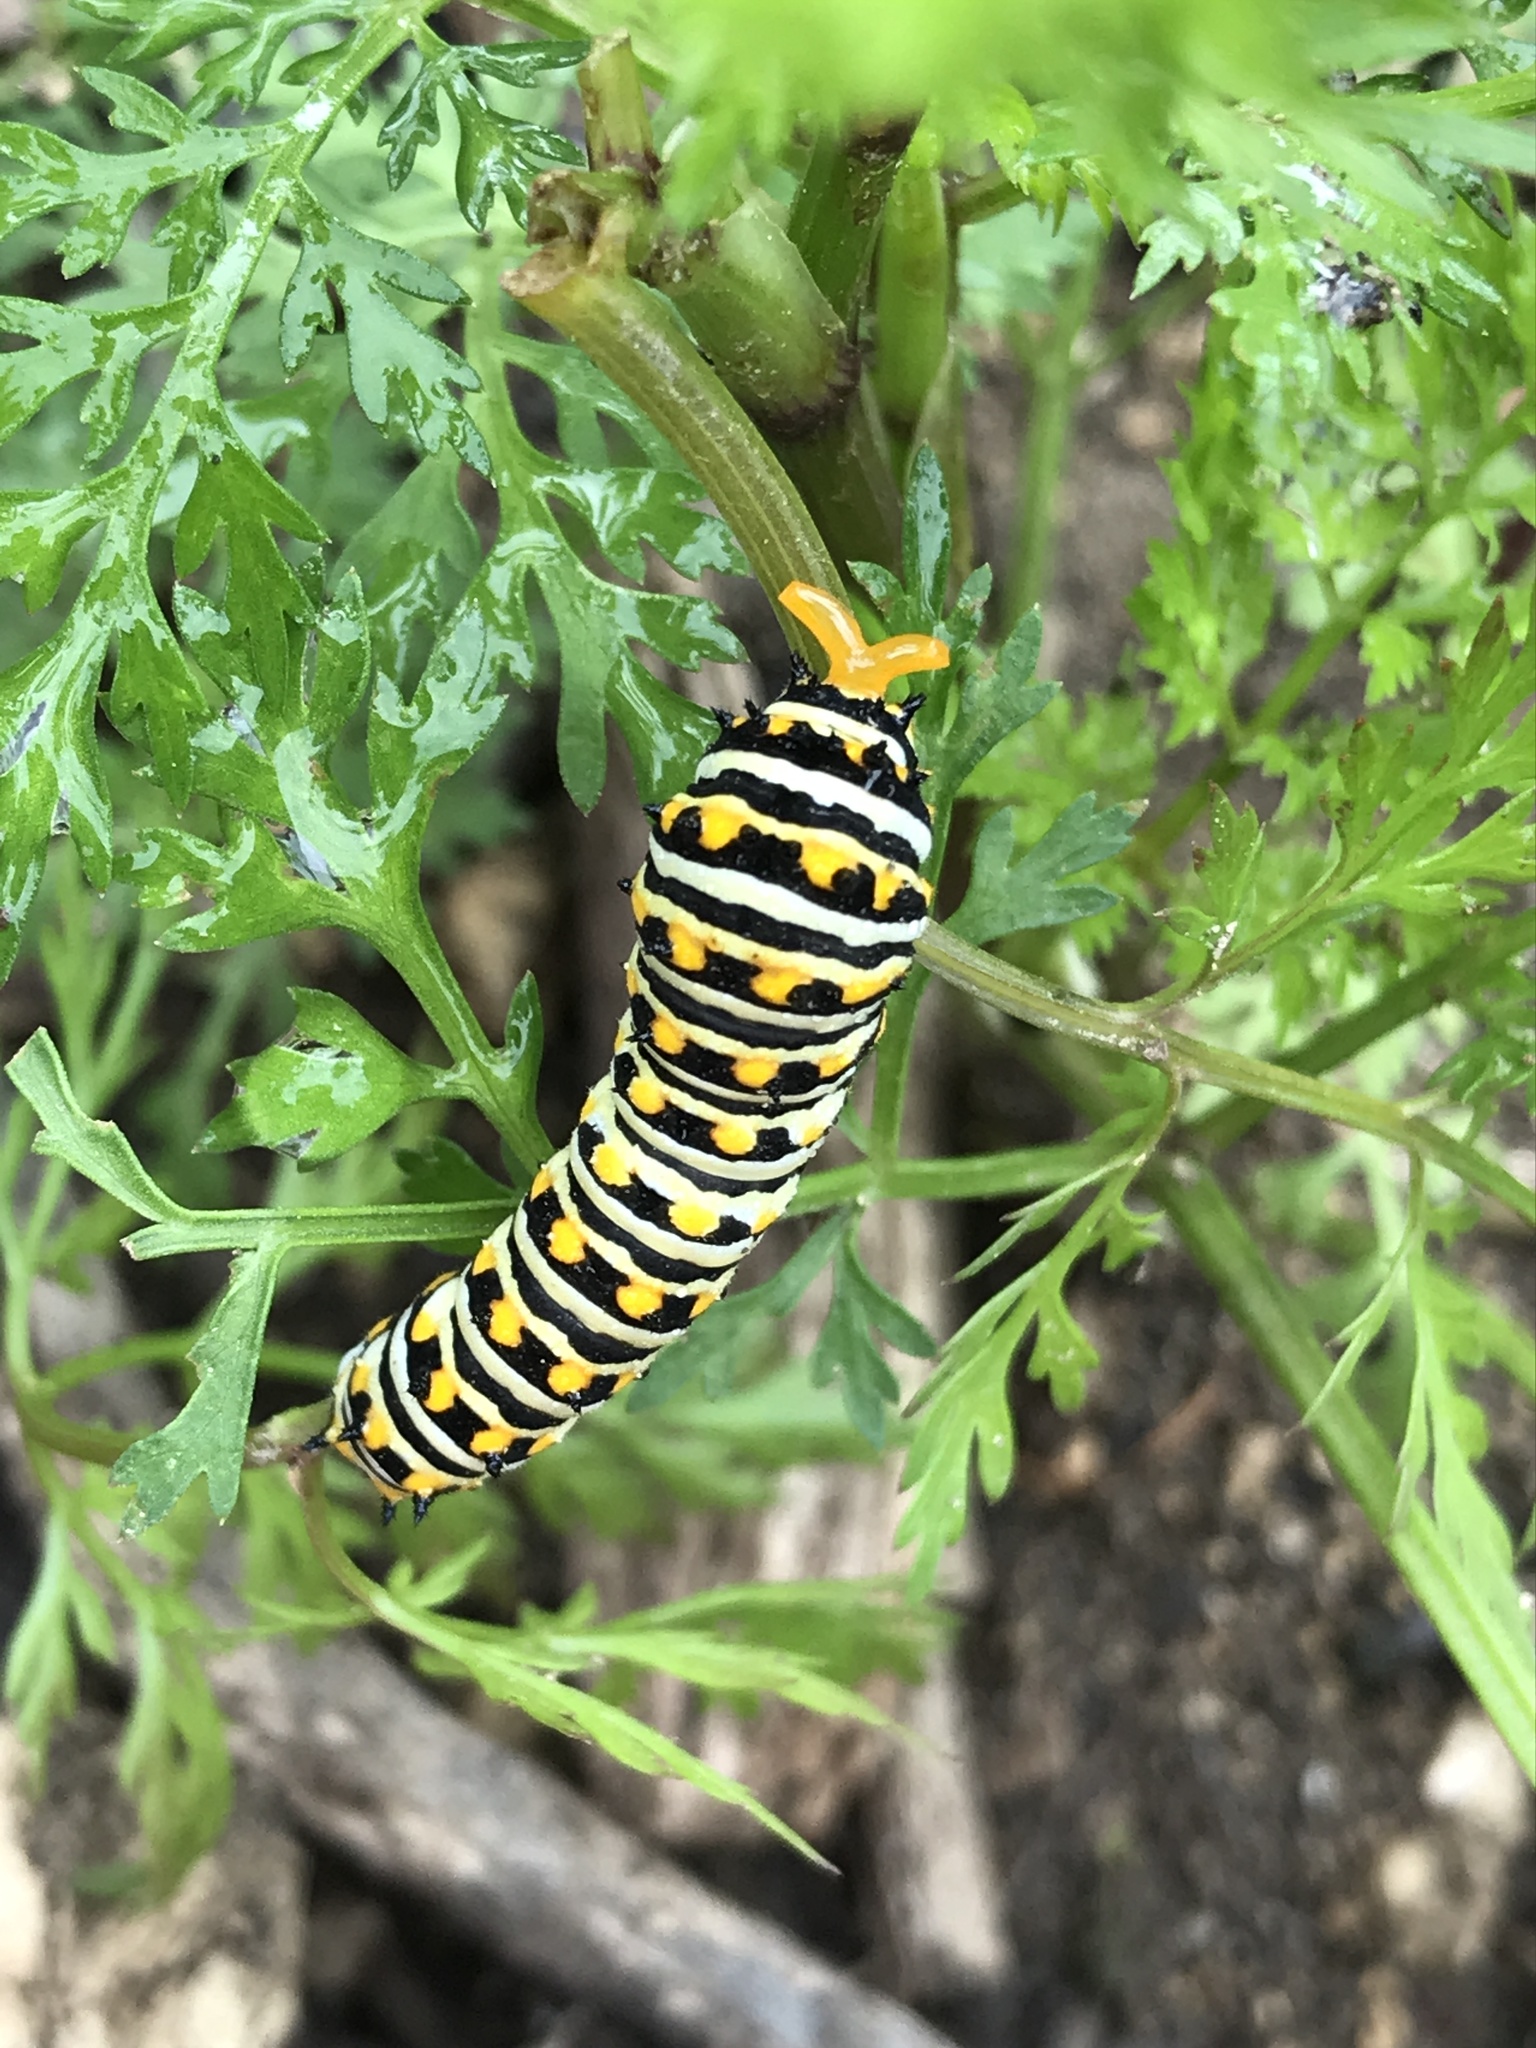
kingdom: Animalia
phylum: Arthropoda
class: Insecta
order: Lepidoptera
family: Papilionidae
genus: Papilio
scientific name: Papilio polyxenes
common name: Black swallowtail
